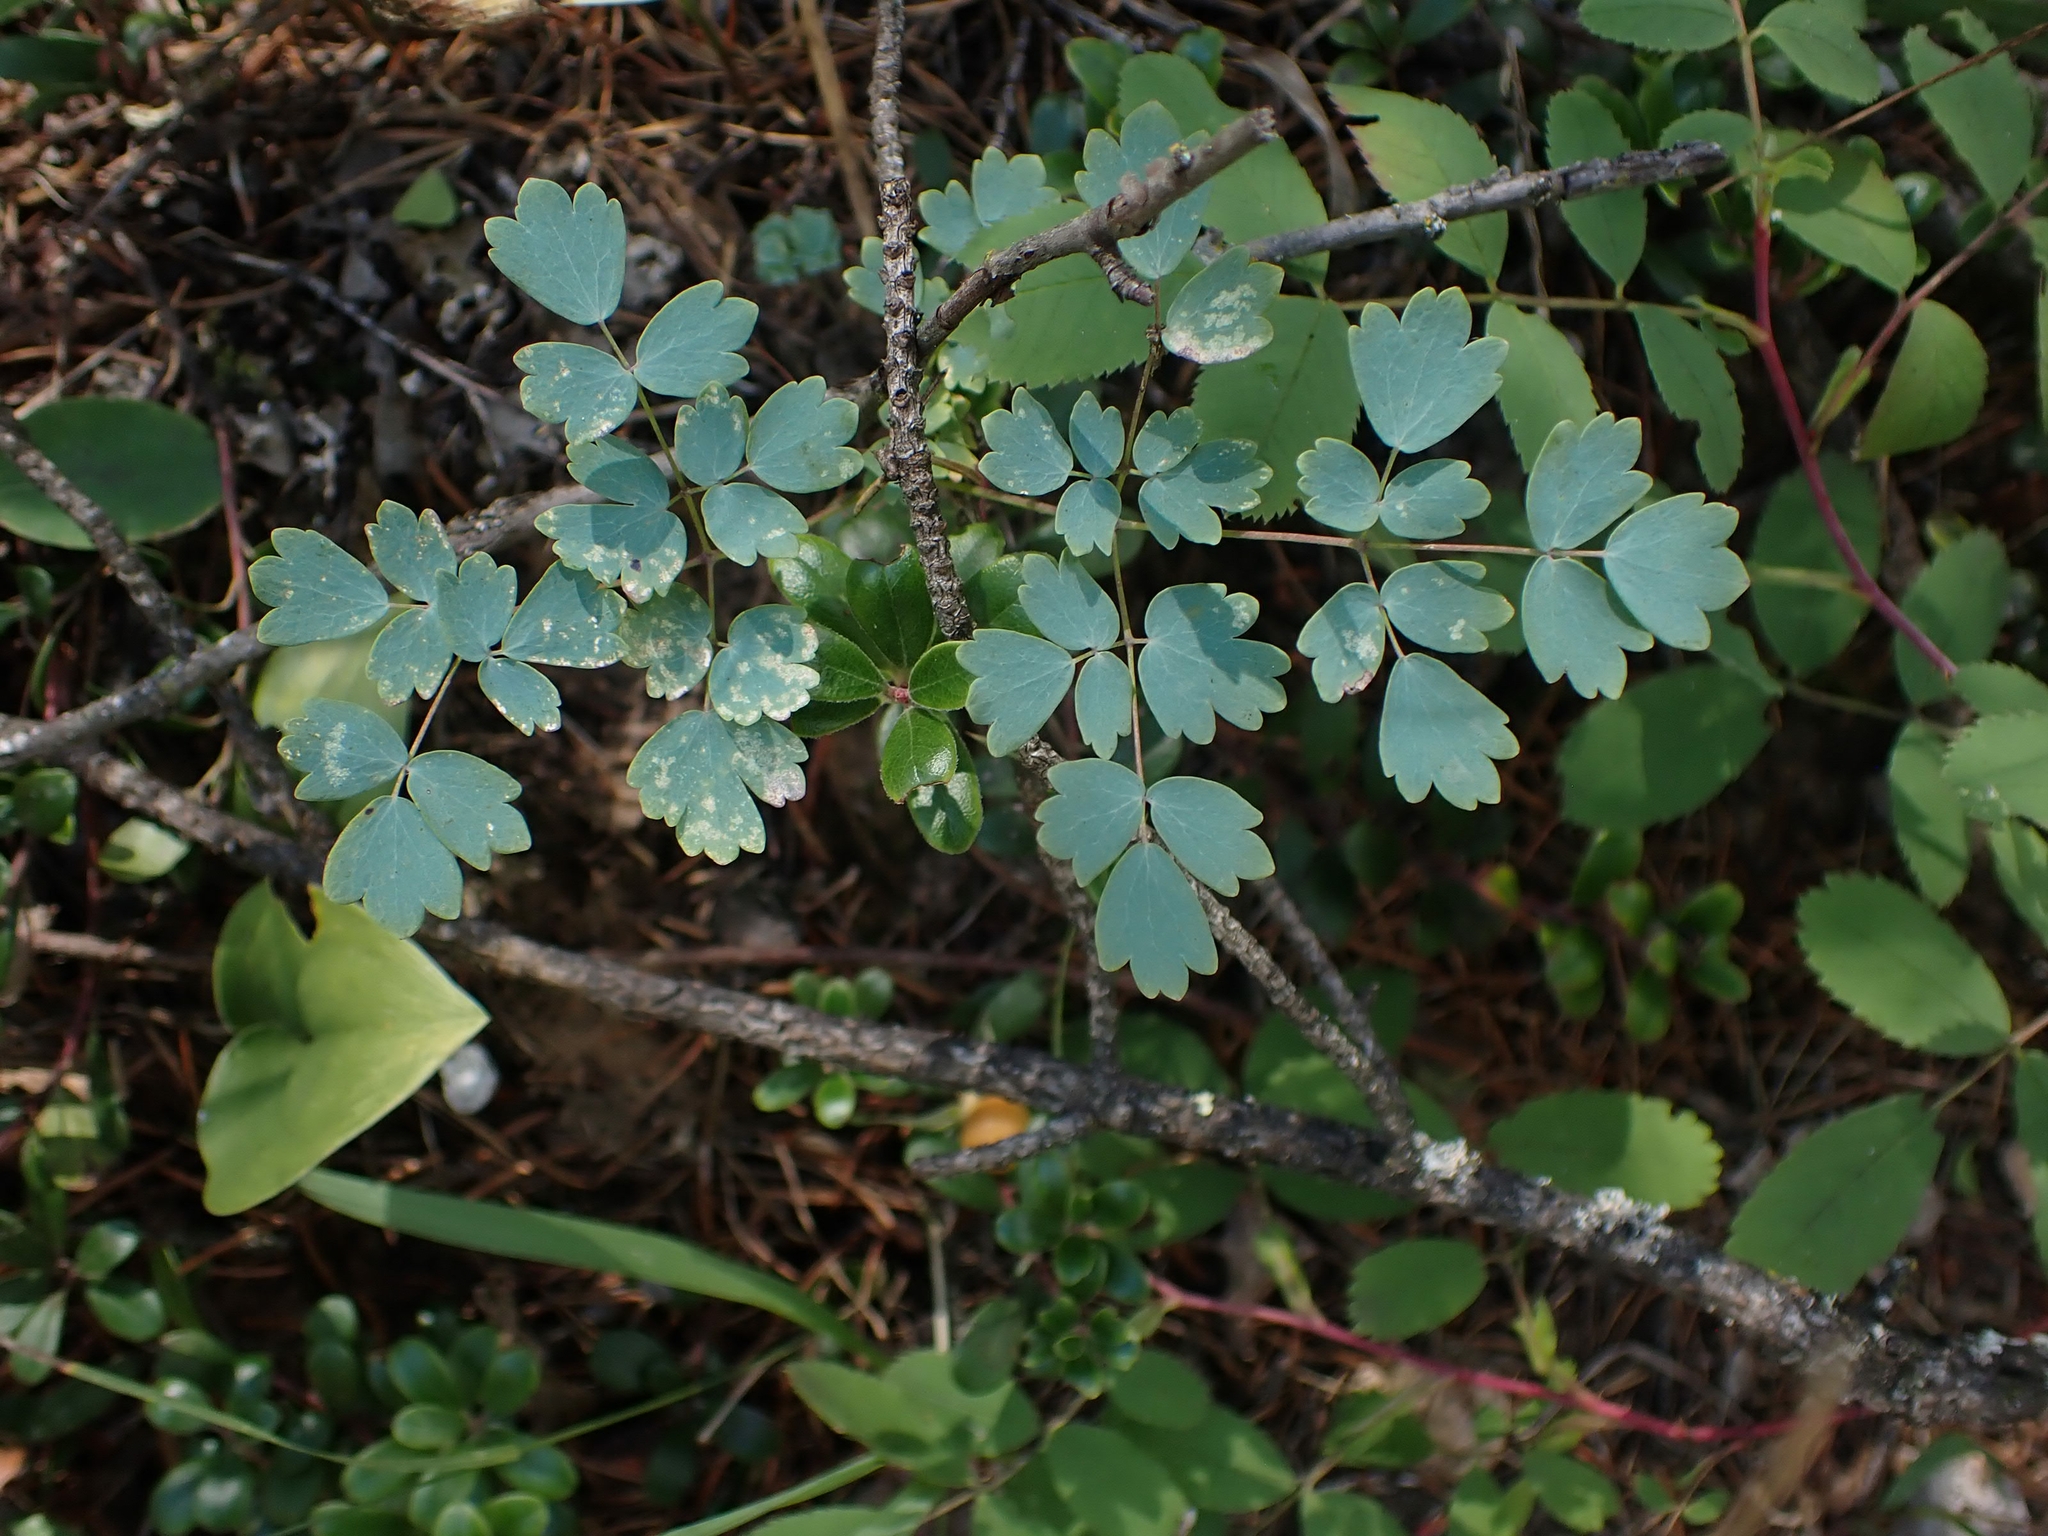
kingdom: Plantae
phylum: Tracheophyta
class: Magnoliopsida
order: Ranunculales
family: Ranunculaceae
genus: Thalictrum
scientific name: Thalictrum venulosum
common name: Early meadow-rue
